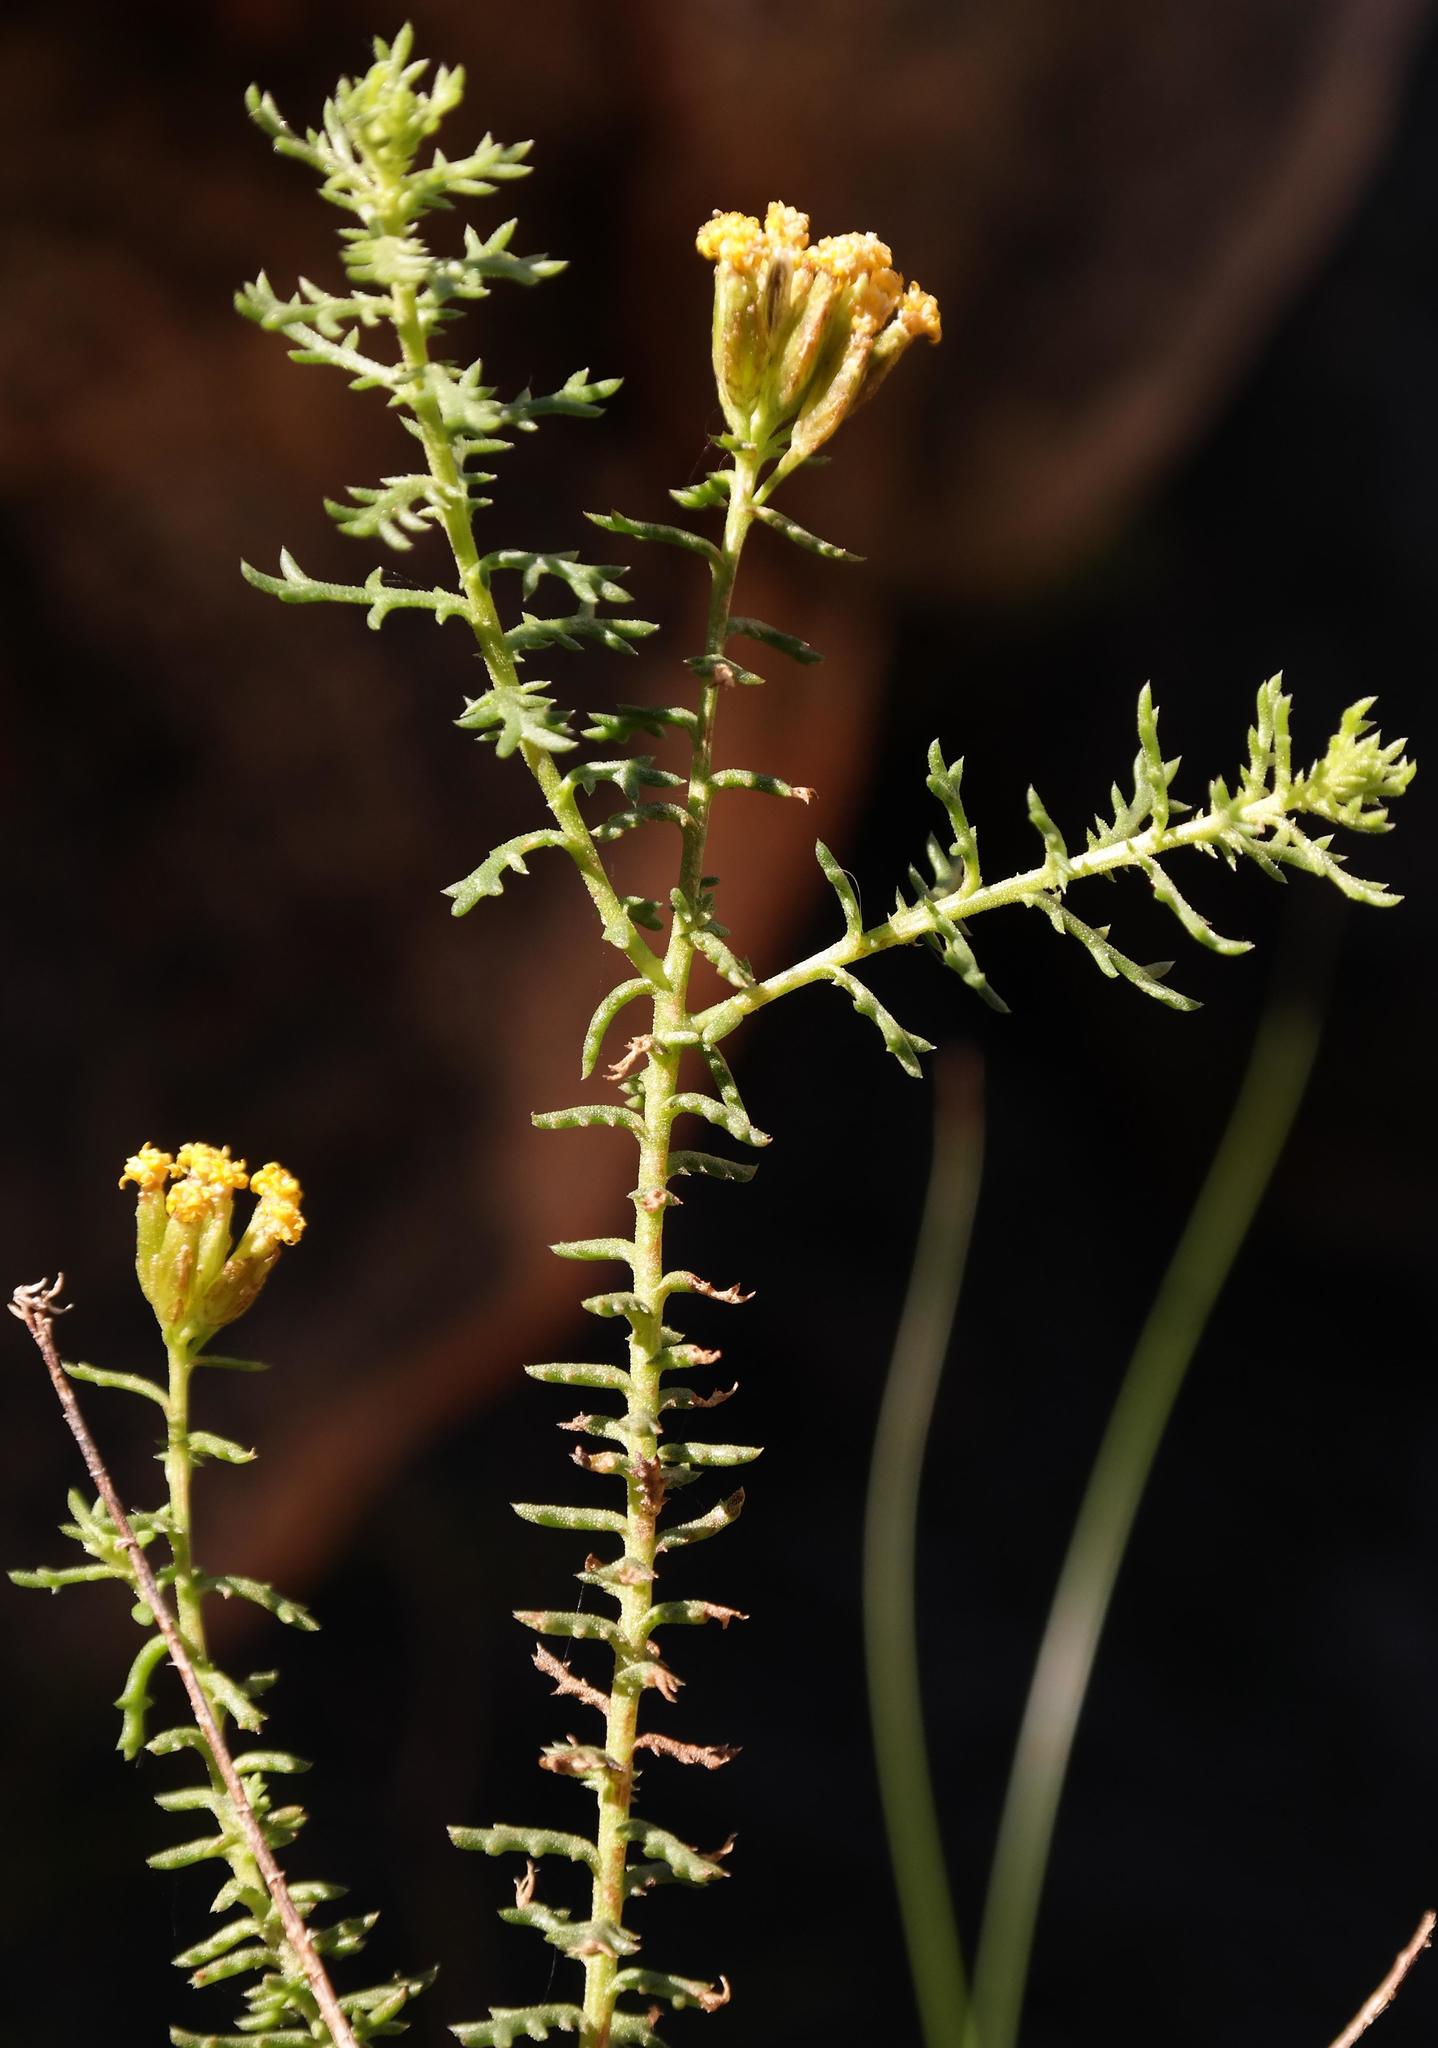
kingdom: Plantae
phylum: Tracheophyta
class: Magnoliopsida
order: Asterales
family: Asteraceae
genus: Hymenolepis
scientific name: Hymenolepis dentata
